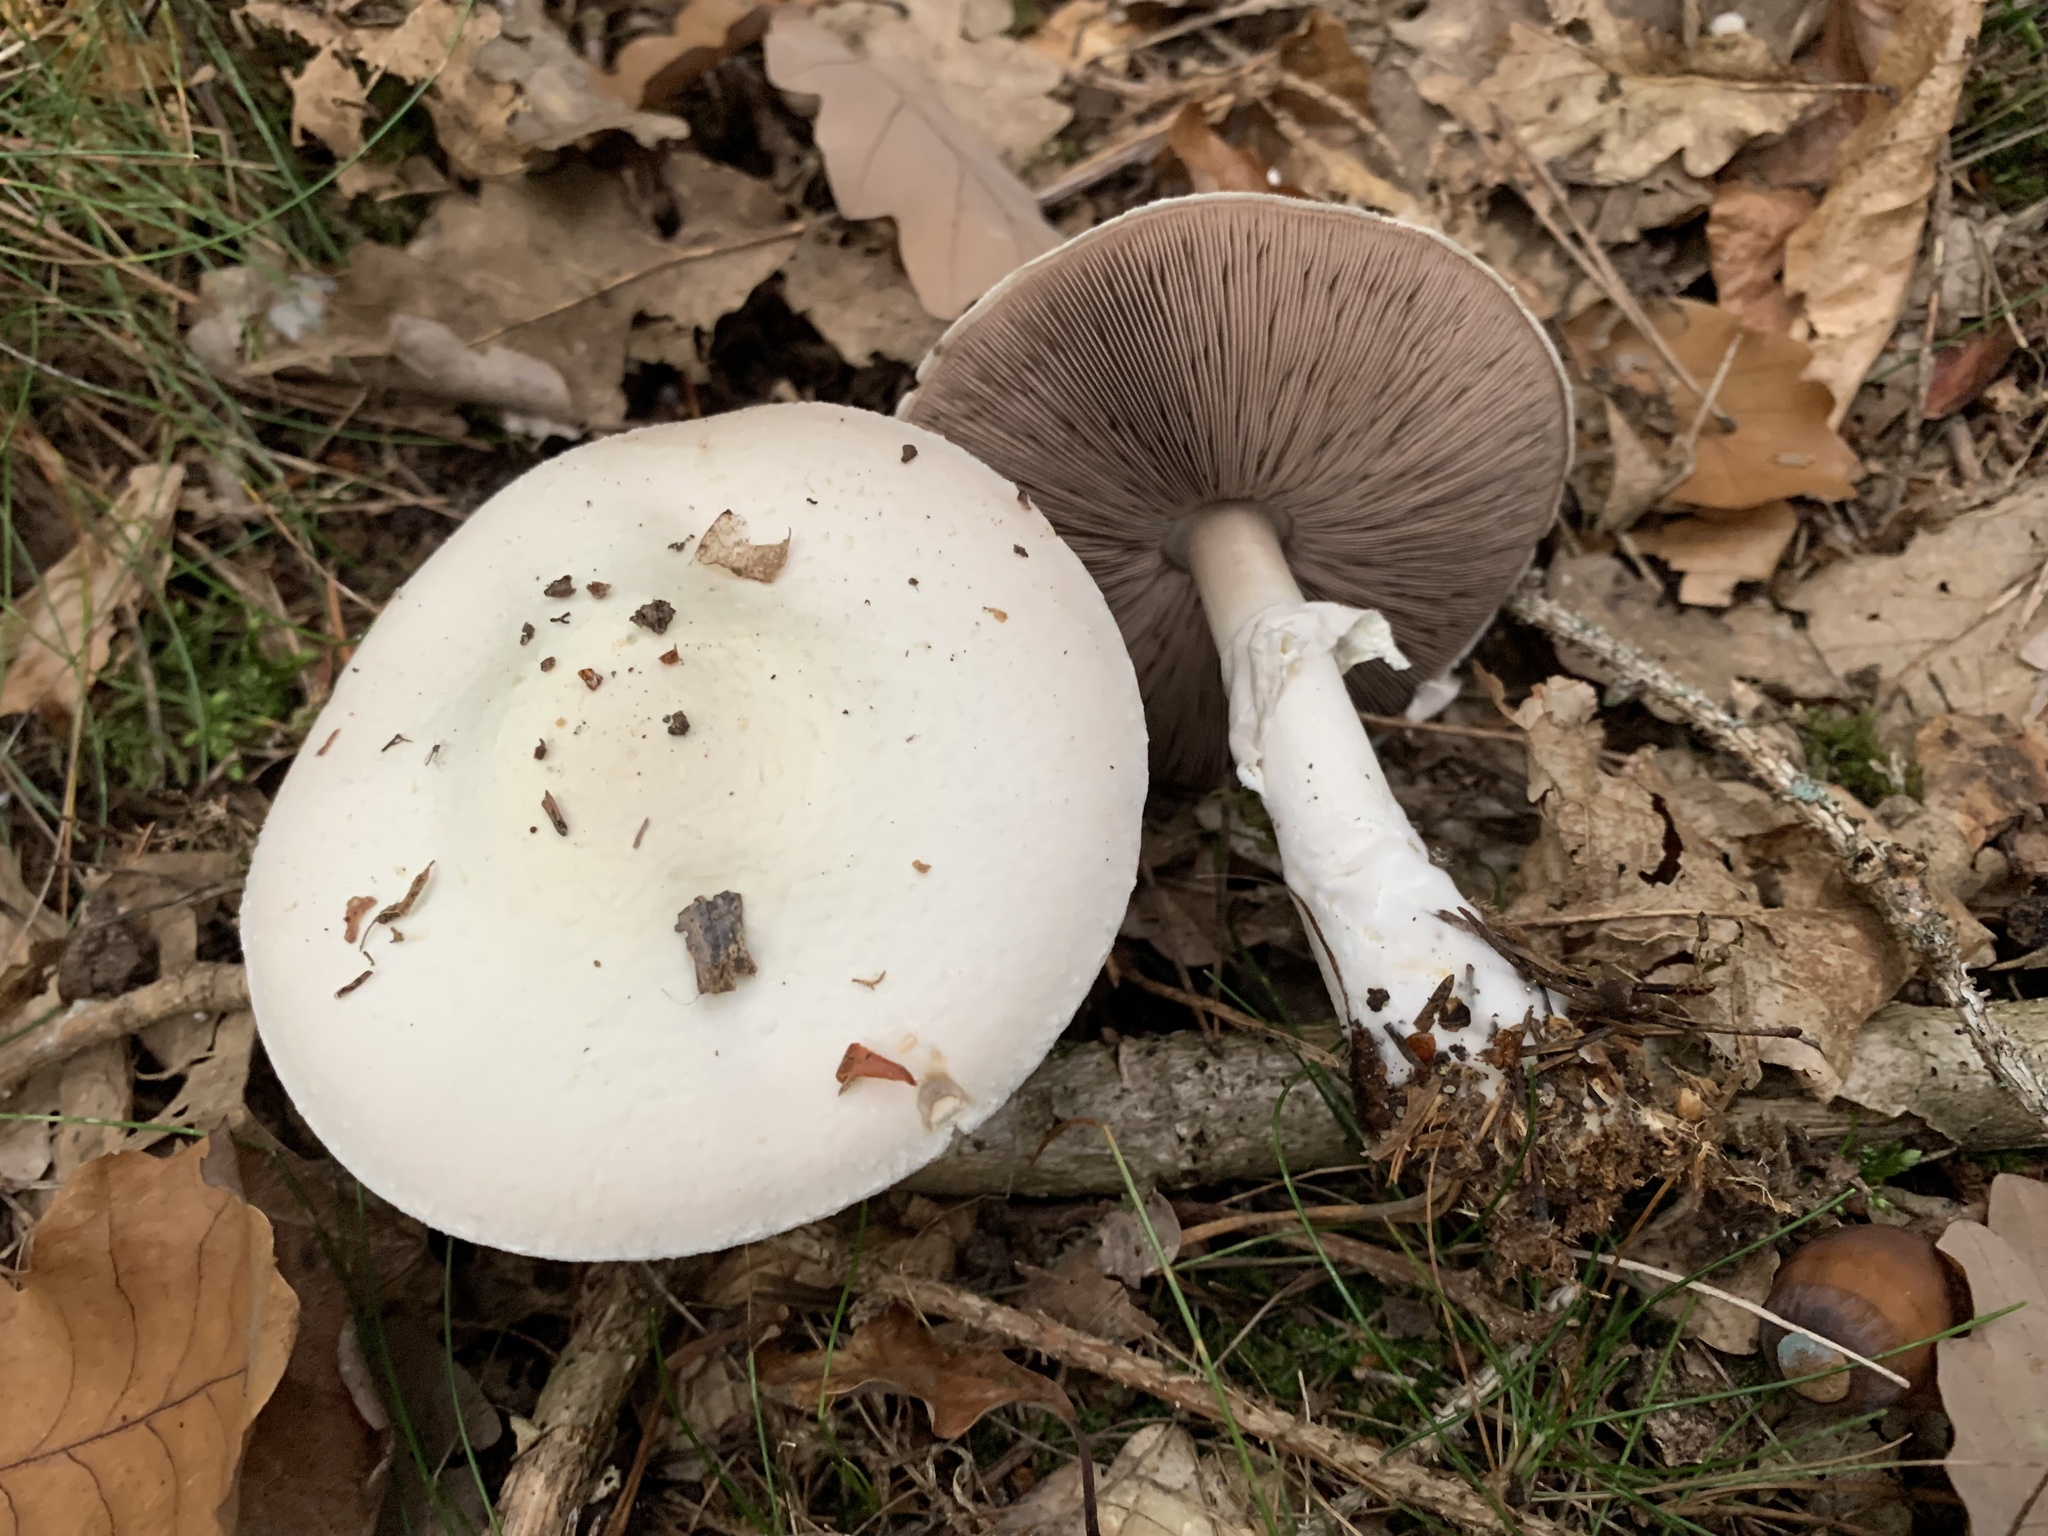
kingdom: Fungi
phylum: Basidiomycota
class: Agaricomycetes
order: Agaricales
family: Agaricaceae
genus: Agaricus
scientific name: Agaricus sylvicola
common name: Wood mushroom
